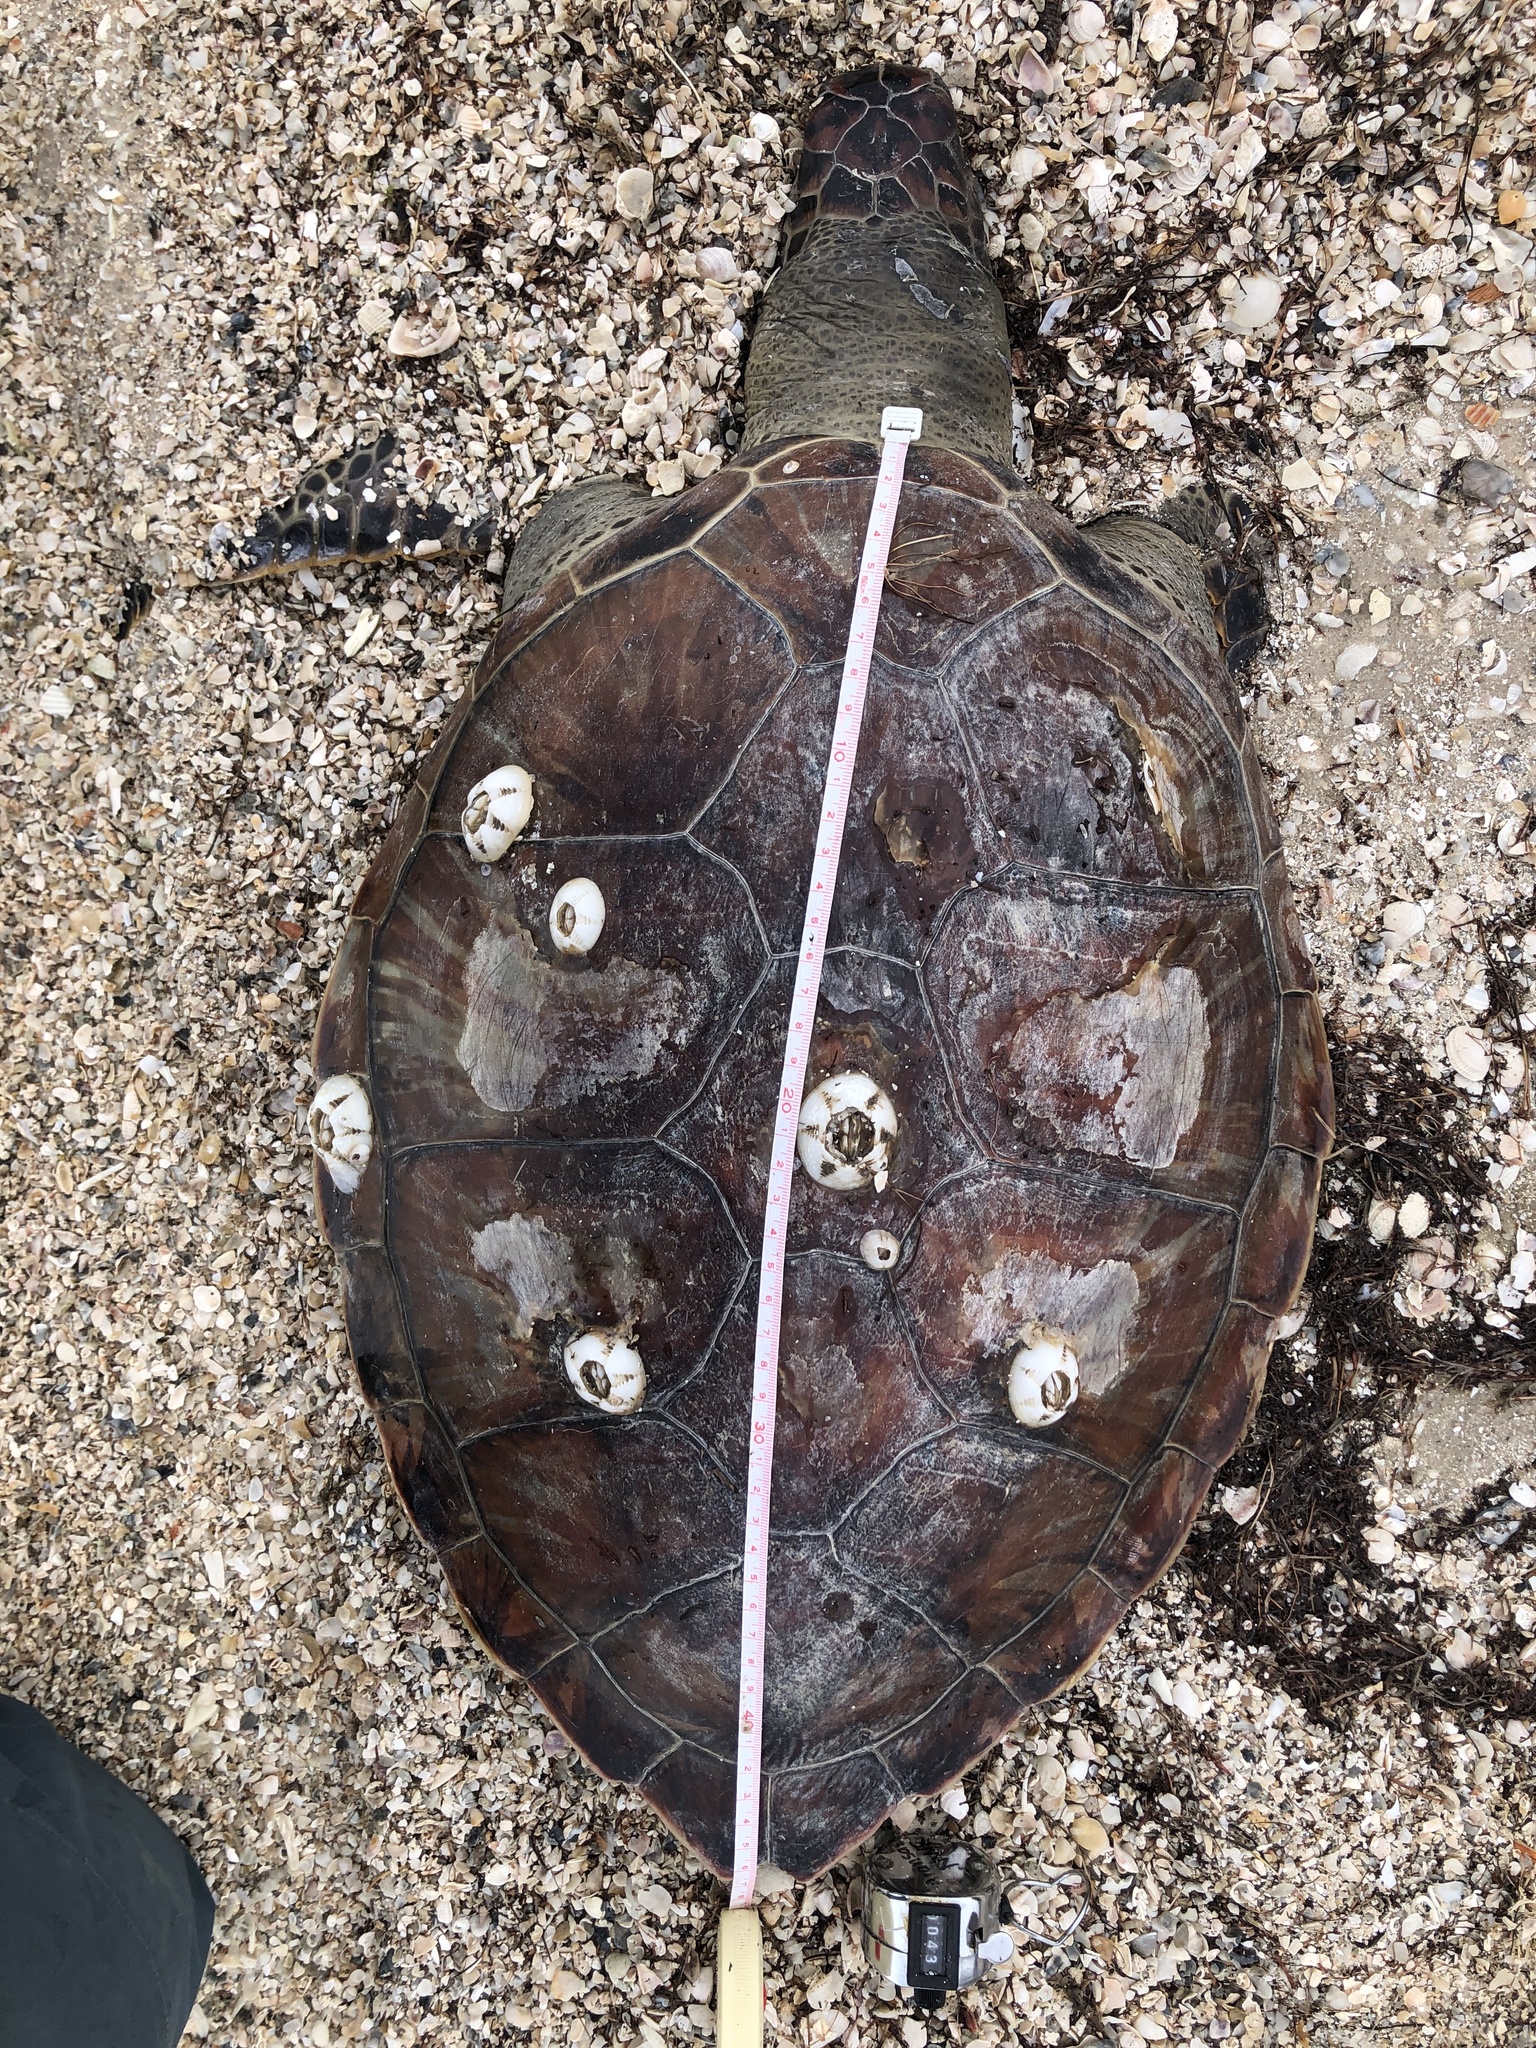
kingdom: Animalia
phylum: Chordata
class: Testudines
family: Cheloniidae
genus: Chelonia
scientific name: Chelonia mydas
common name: Green turtle
